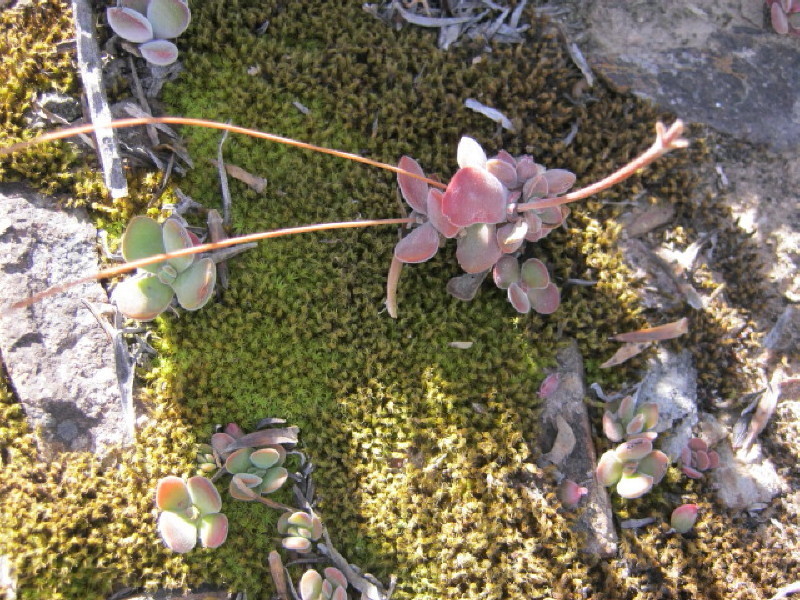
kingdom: Plantae
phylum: Tracheophyta
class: Magnoliopsida
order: Saxifragales
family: Crassulaceae
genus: Crassula
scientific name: Crassula pubescens
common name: Jersey pigmyweed
